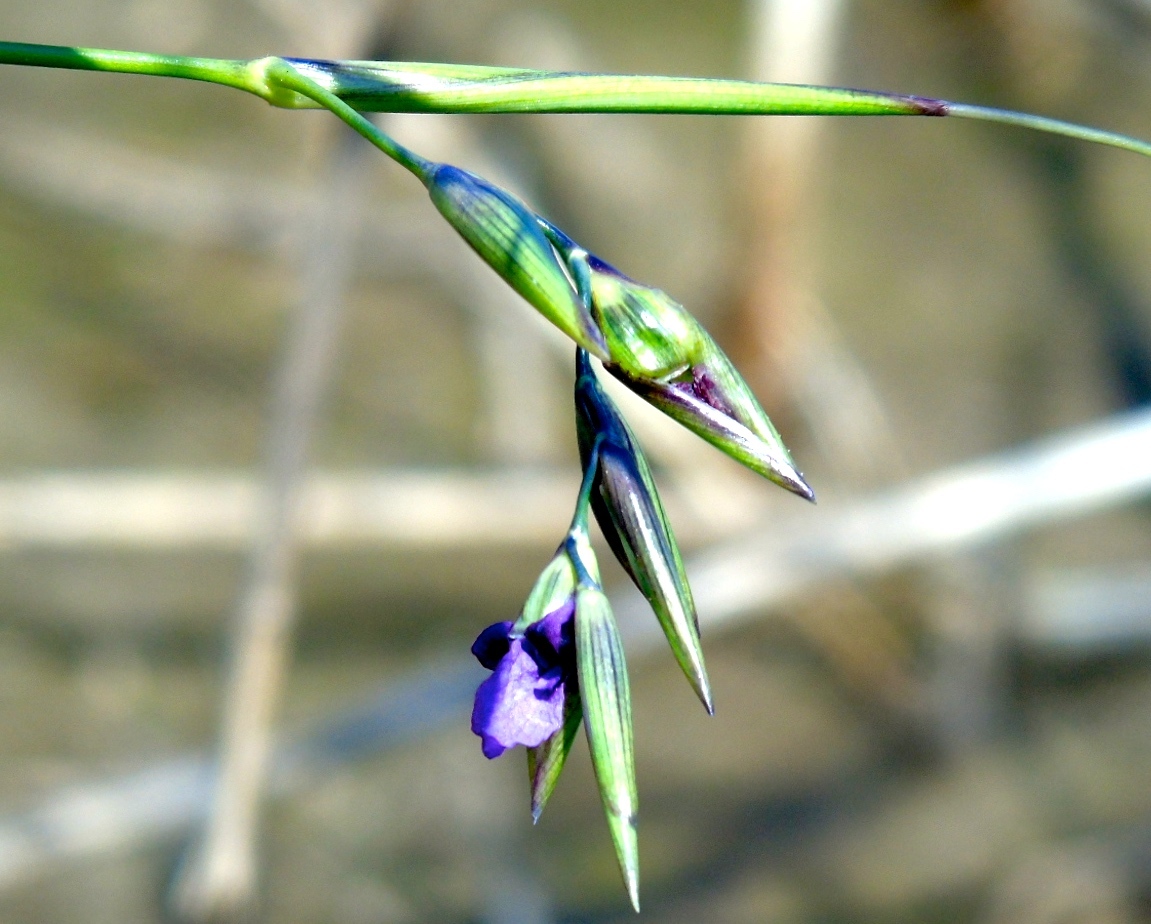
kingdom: Plantae
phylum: Tracheophyta
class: Liliopsida
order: Zingiberales
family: Marantaceae
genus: Thalia
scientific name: Thalia geniculata
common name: Arrowroot
